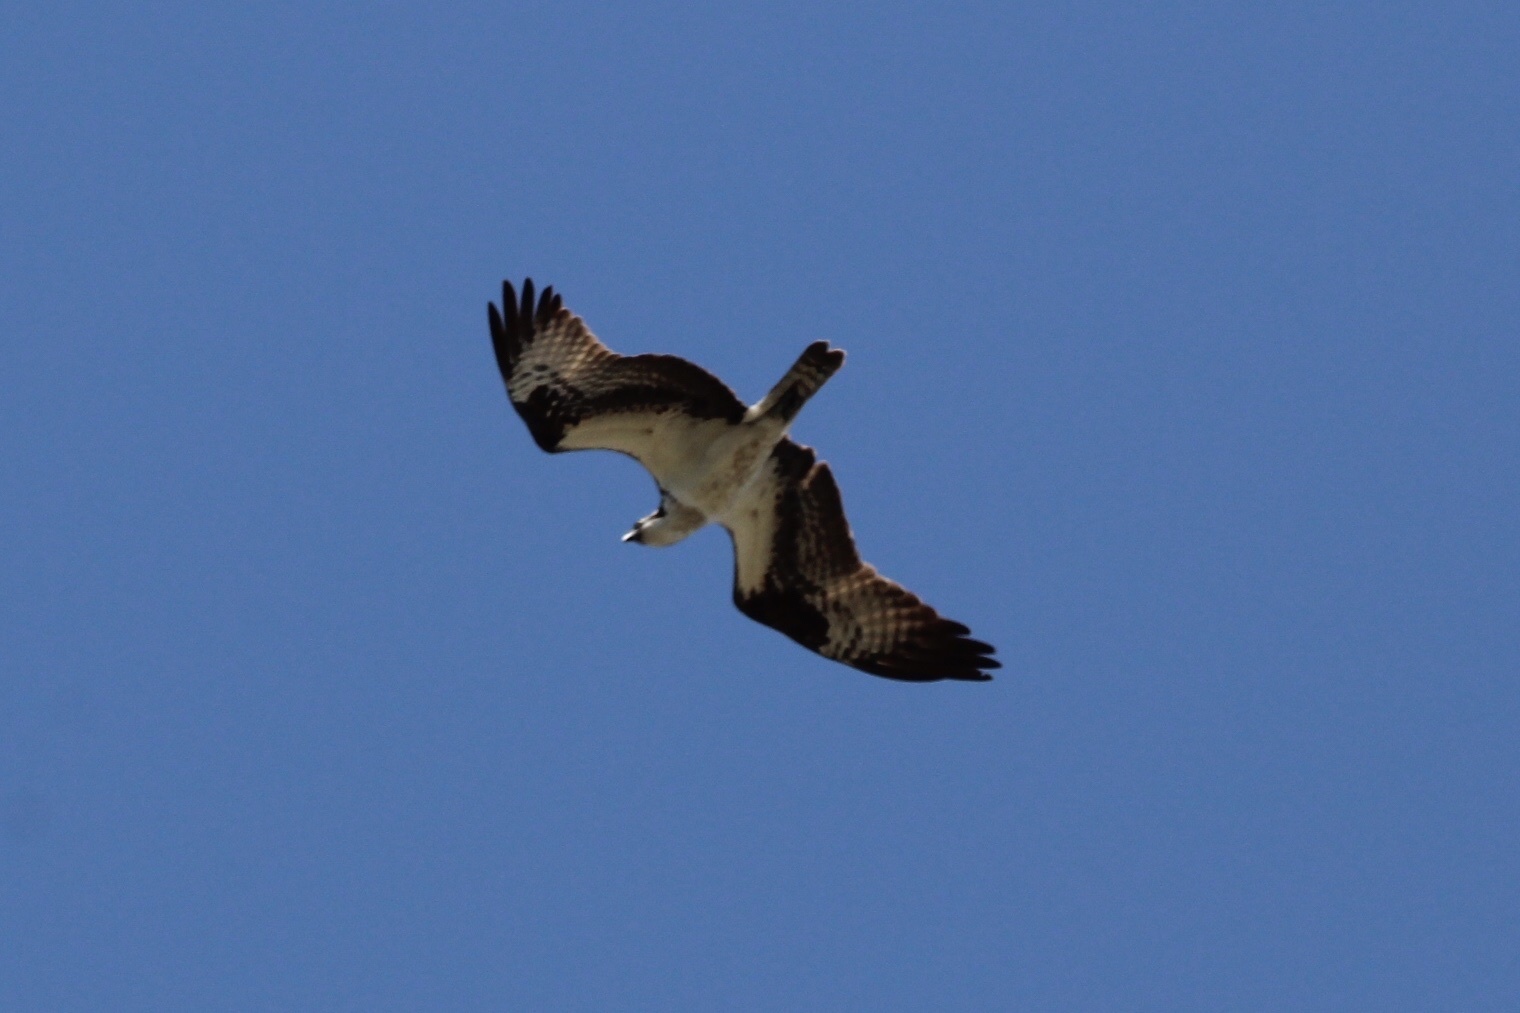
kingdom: Animalia
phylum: Chordata
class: Aves
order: Accipitriformes
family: Pandionidae
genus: Pandion
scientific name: Pandion haliaetus
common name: Osprey
